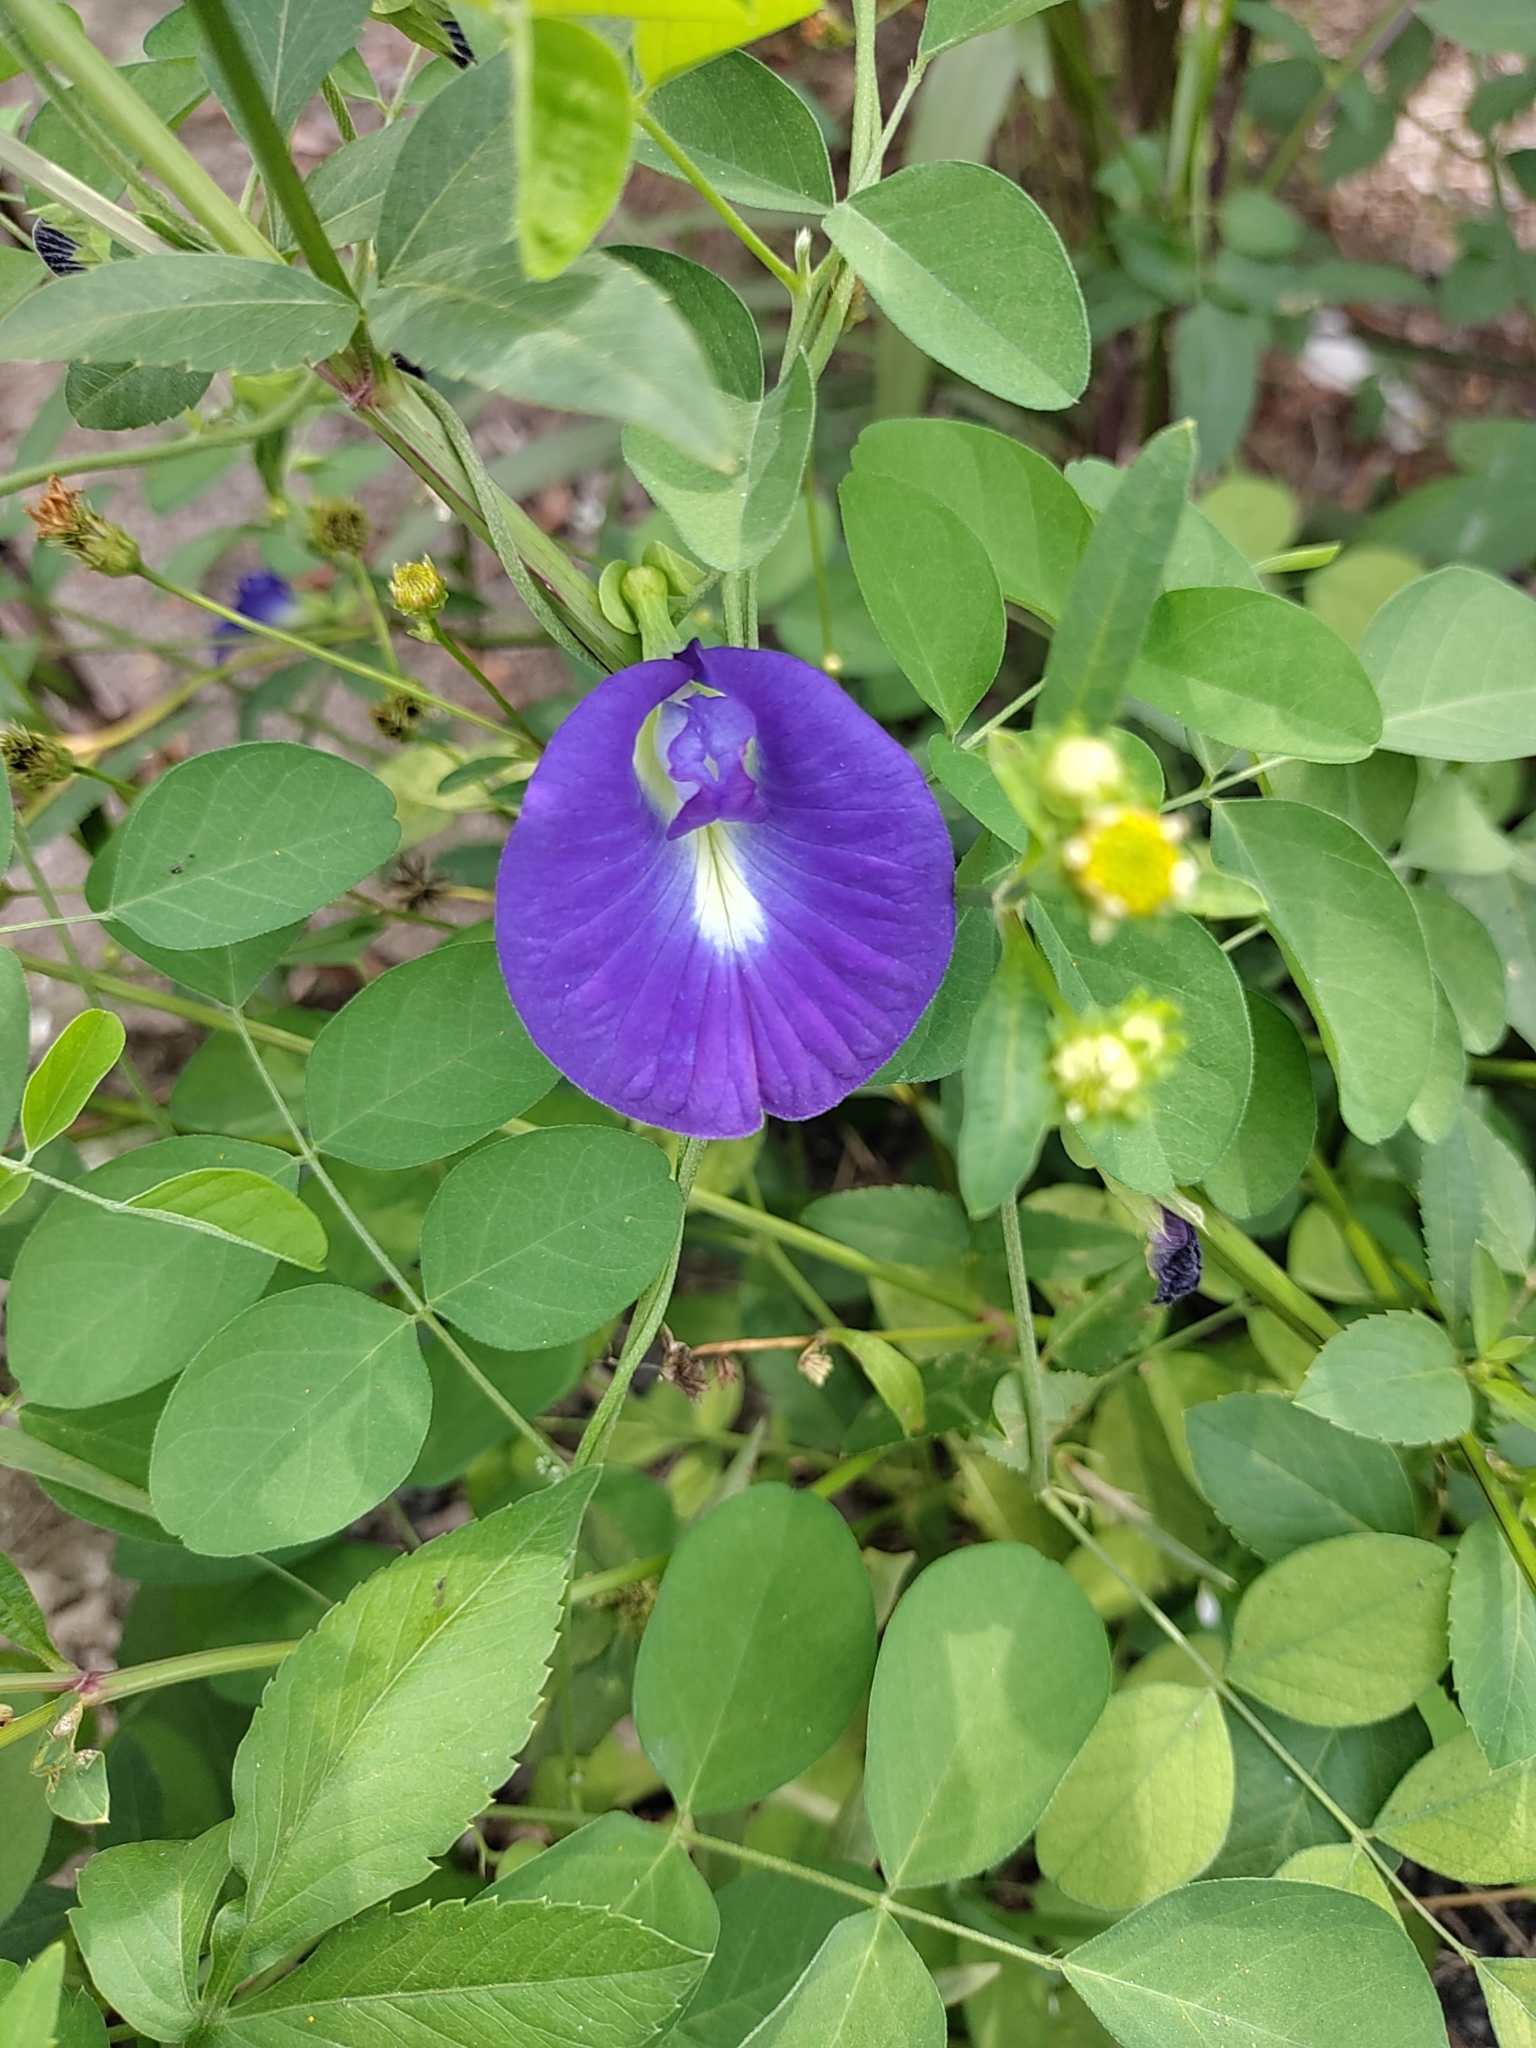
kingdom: Plantae
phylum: Tracheophyta
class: Magnoliopsida
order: Fabales
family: Fabaceae
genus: Clitoria
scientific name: Clitoria ternatea
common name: Asian pigeonwings
